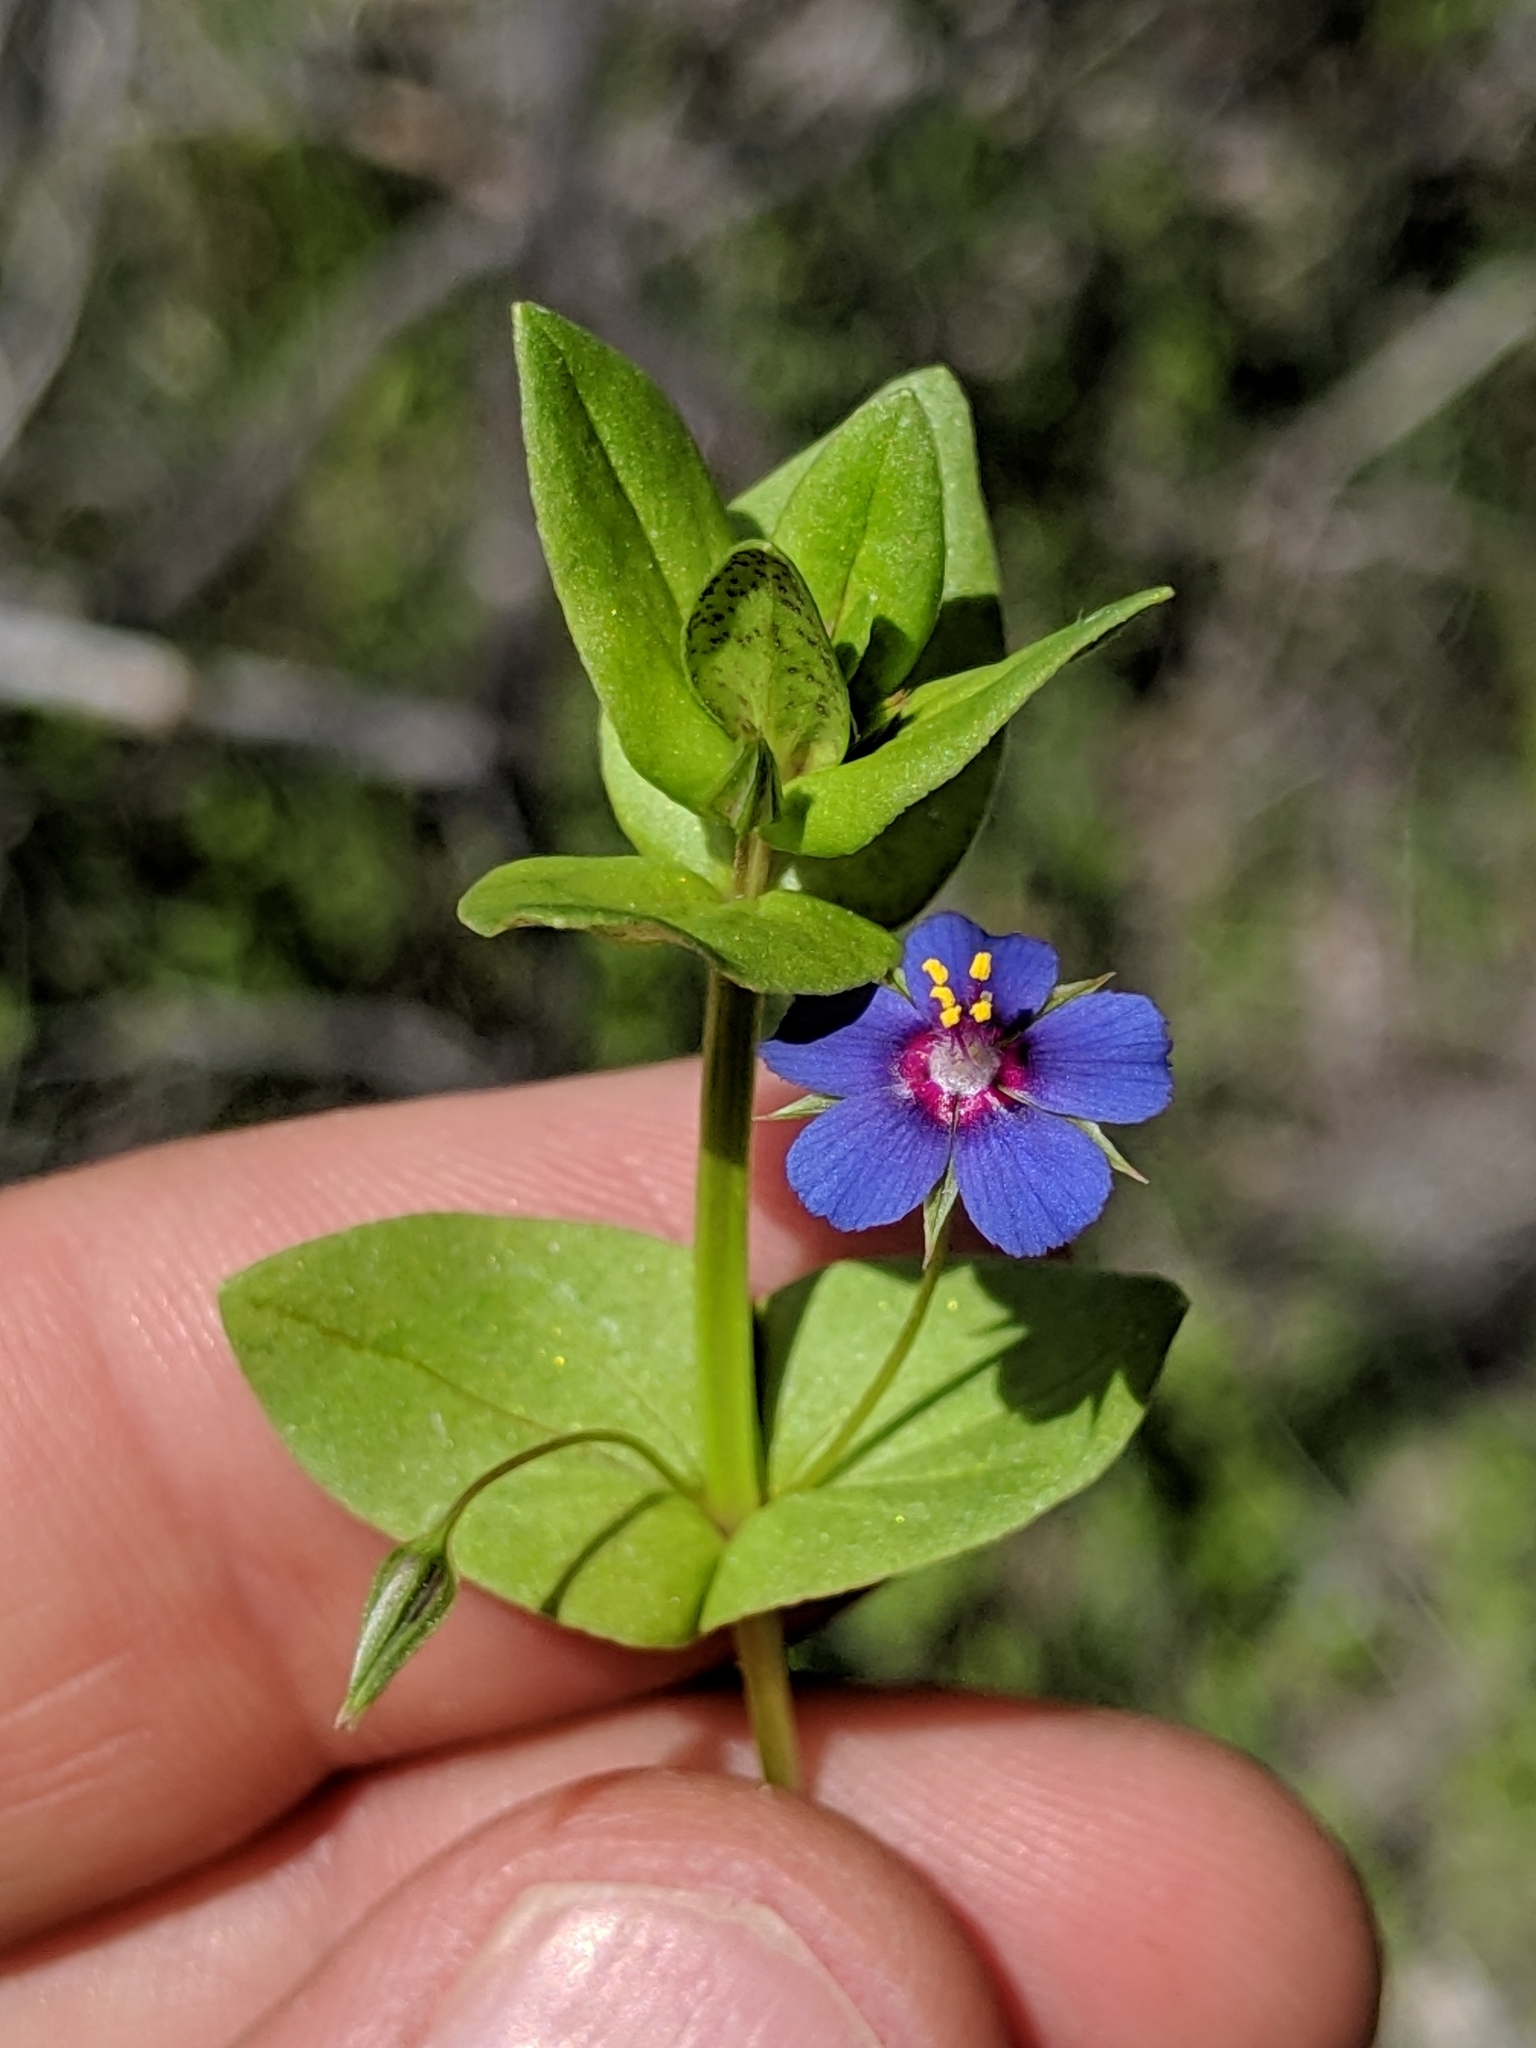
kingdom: Plantae
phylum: Tracheophyta
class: Magnoliopsida
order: Ericales
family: Primulaceae
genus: Lysimachia
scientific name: Lysimachia arvensis
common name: Scarlet pimpernel
